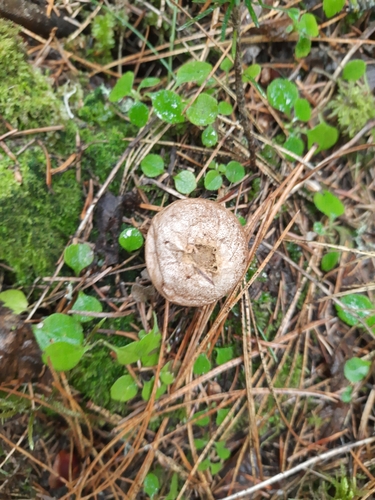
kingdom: Fungi
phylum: Basidiomycota
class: Agaricomycetes
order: Agaricales
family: Lycoperdaceae
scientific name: Lycoperdaceae
